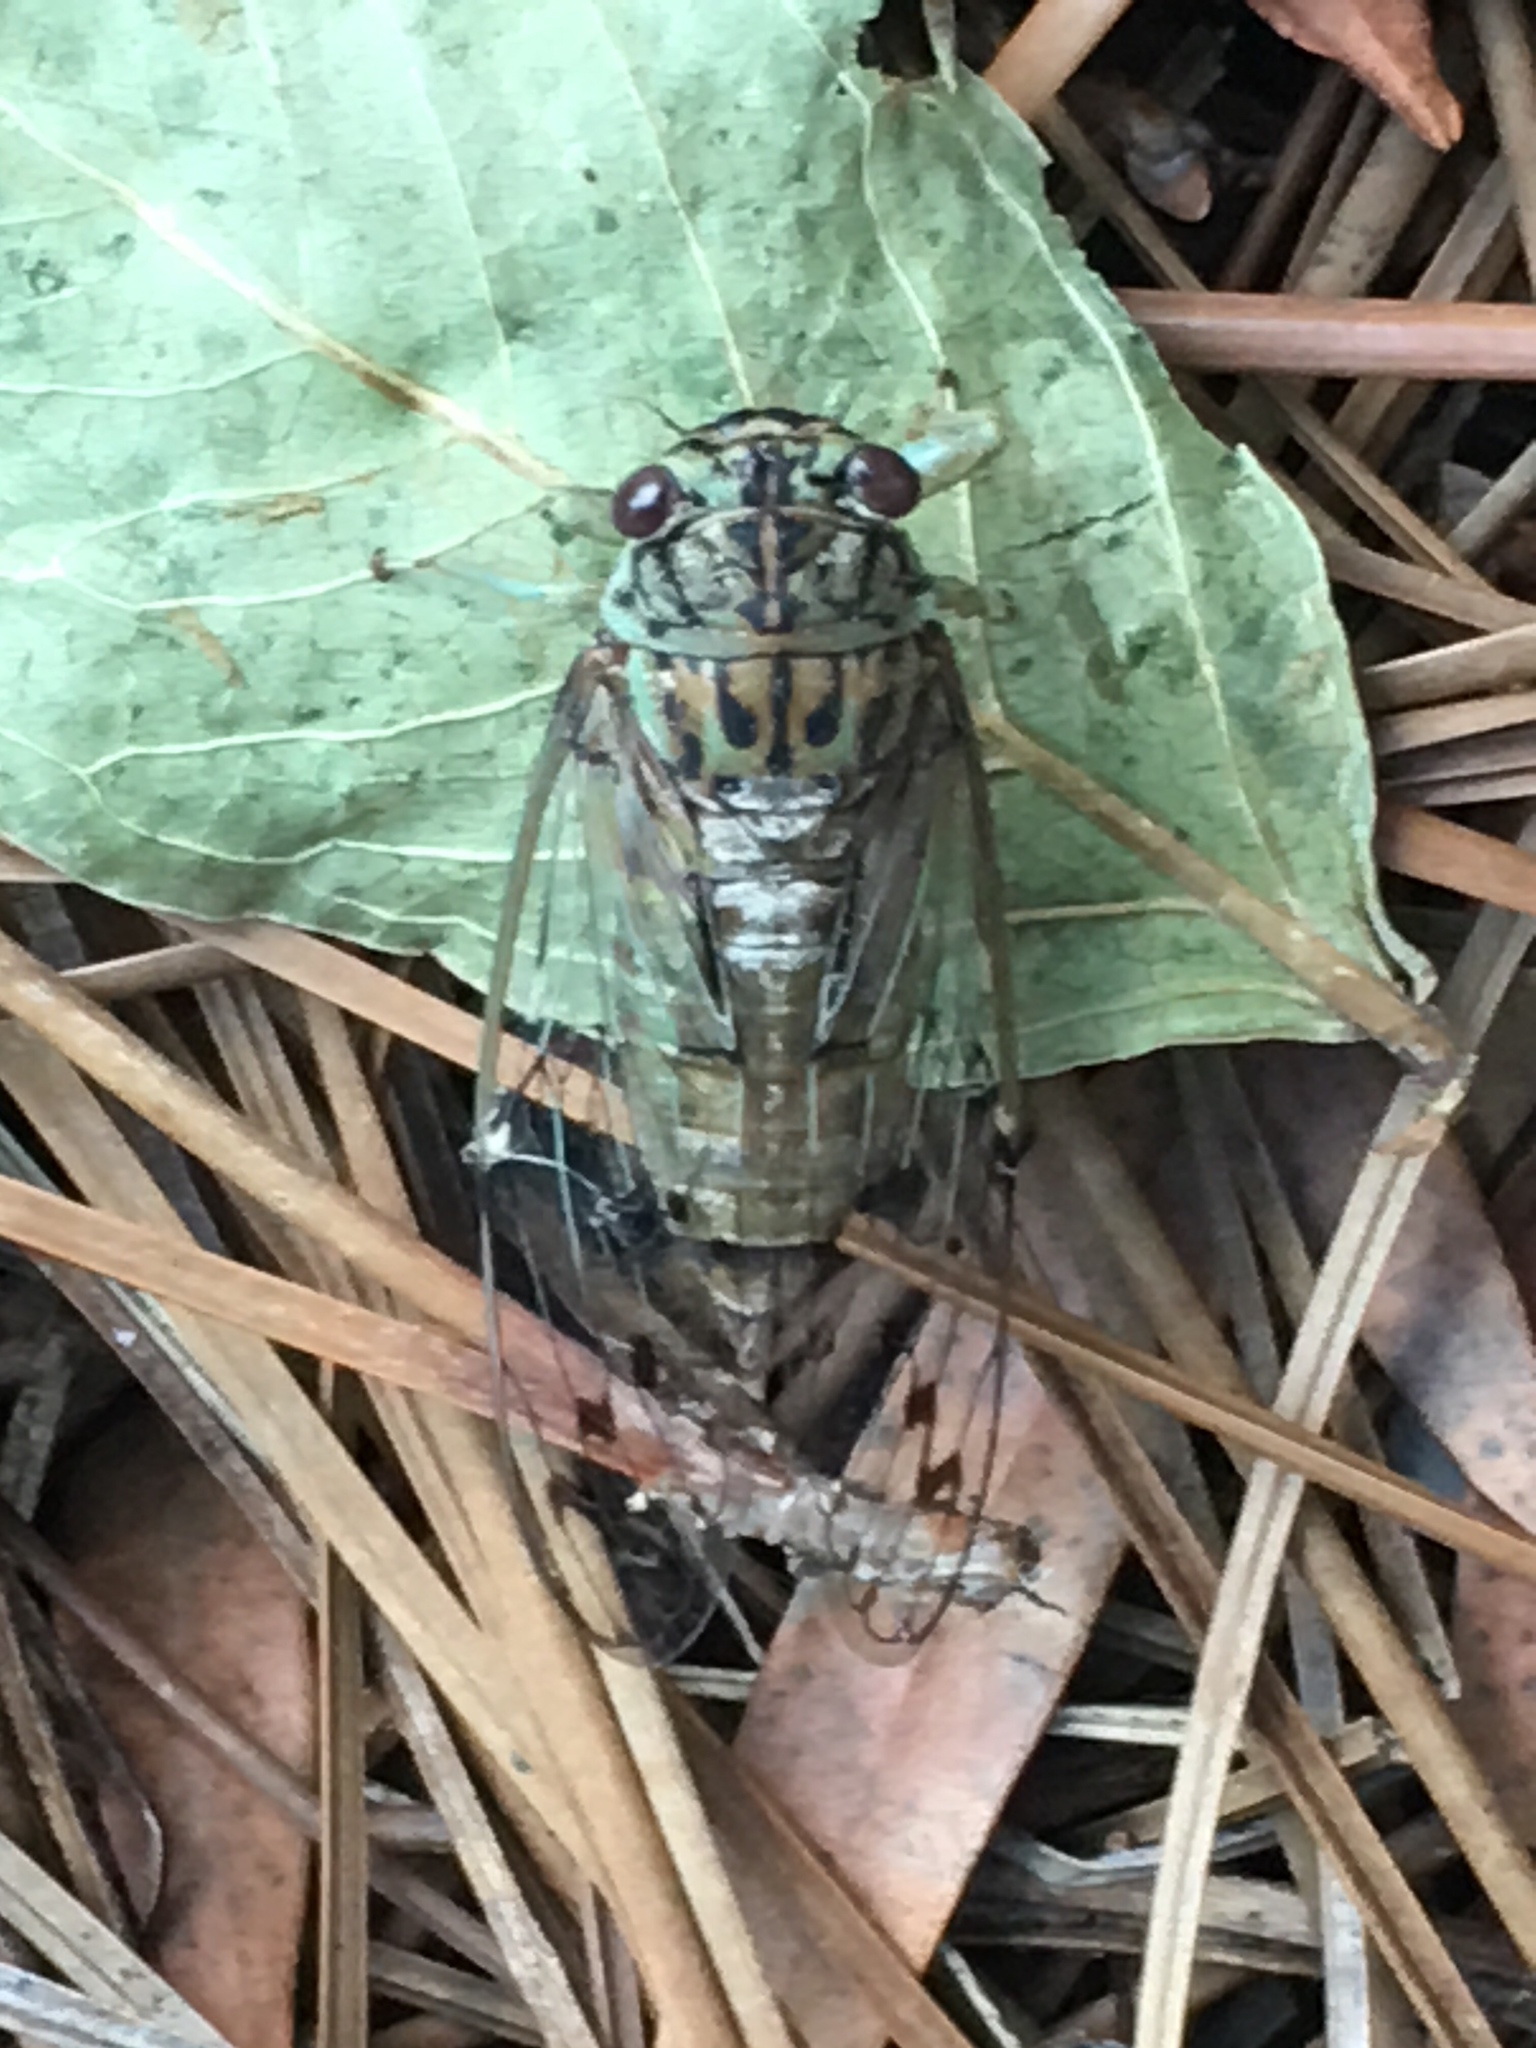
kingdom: Animalia
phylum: Arthropoda
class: Insecta
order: Hemiptera
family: Cicadidae
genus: Neocicada
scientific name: Neocicada hieroglyphica
